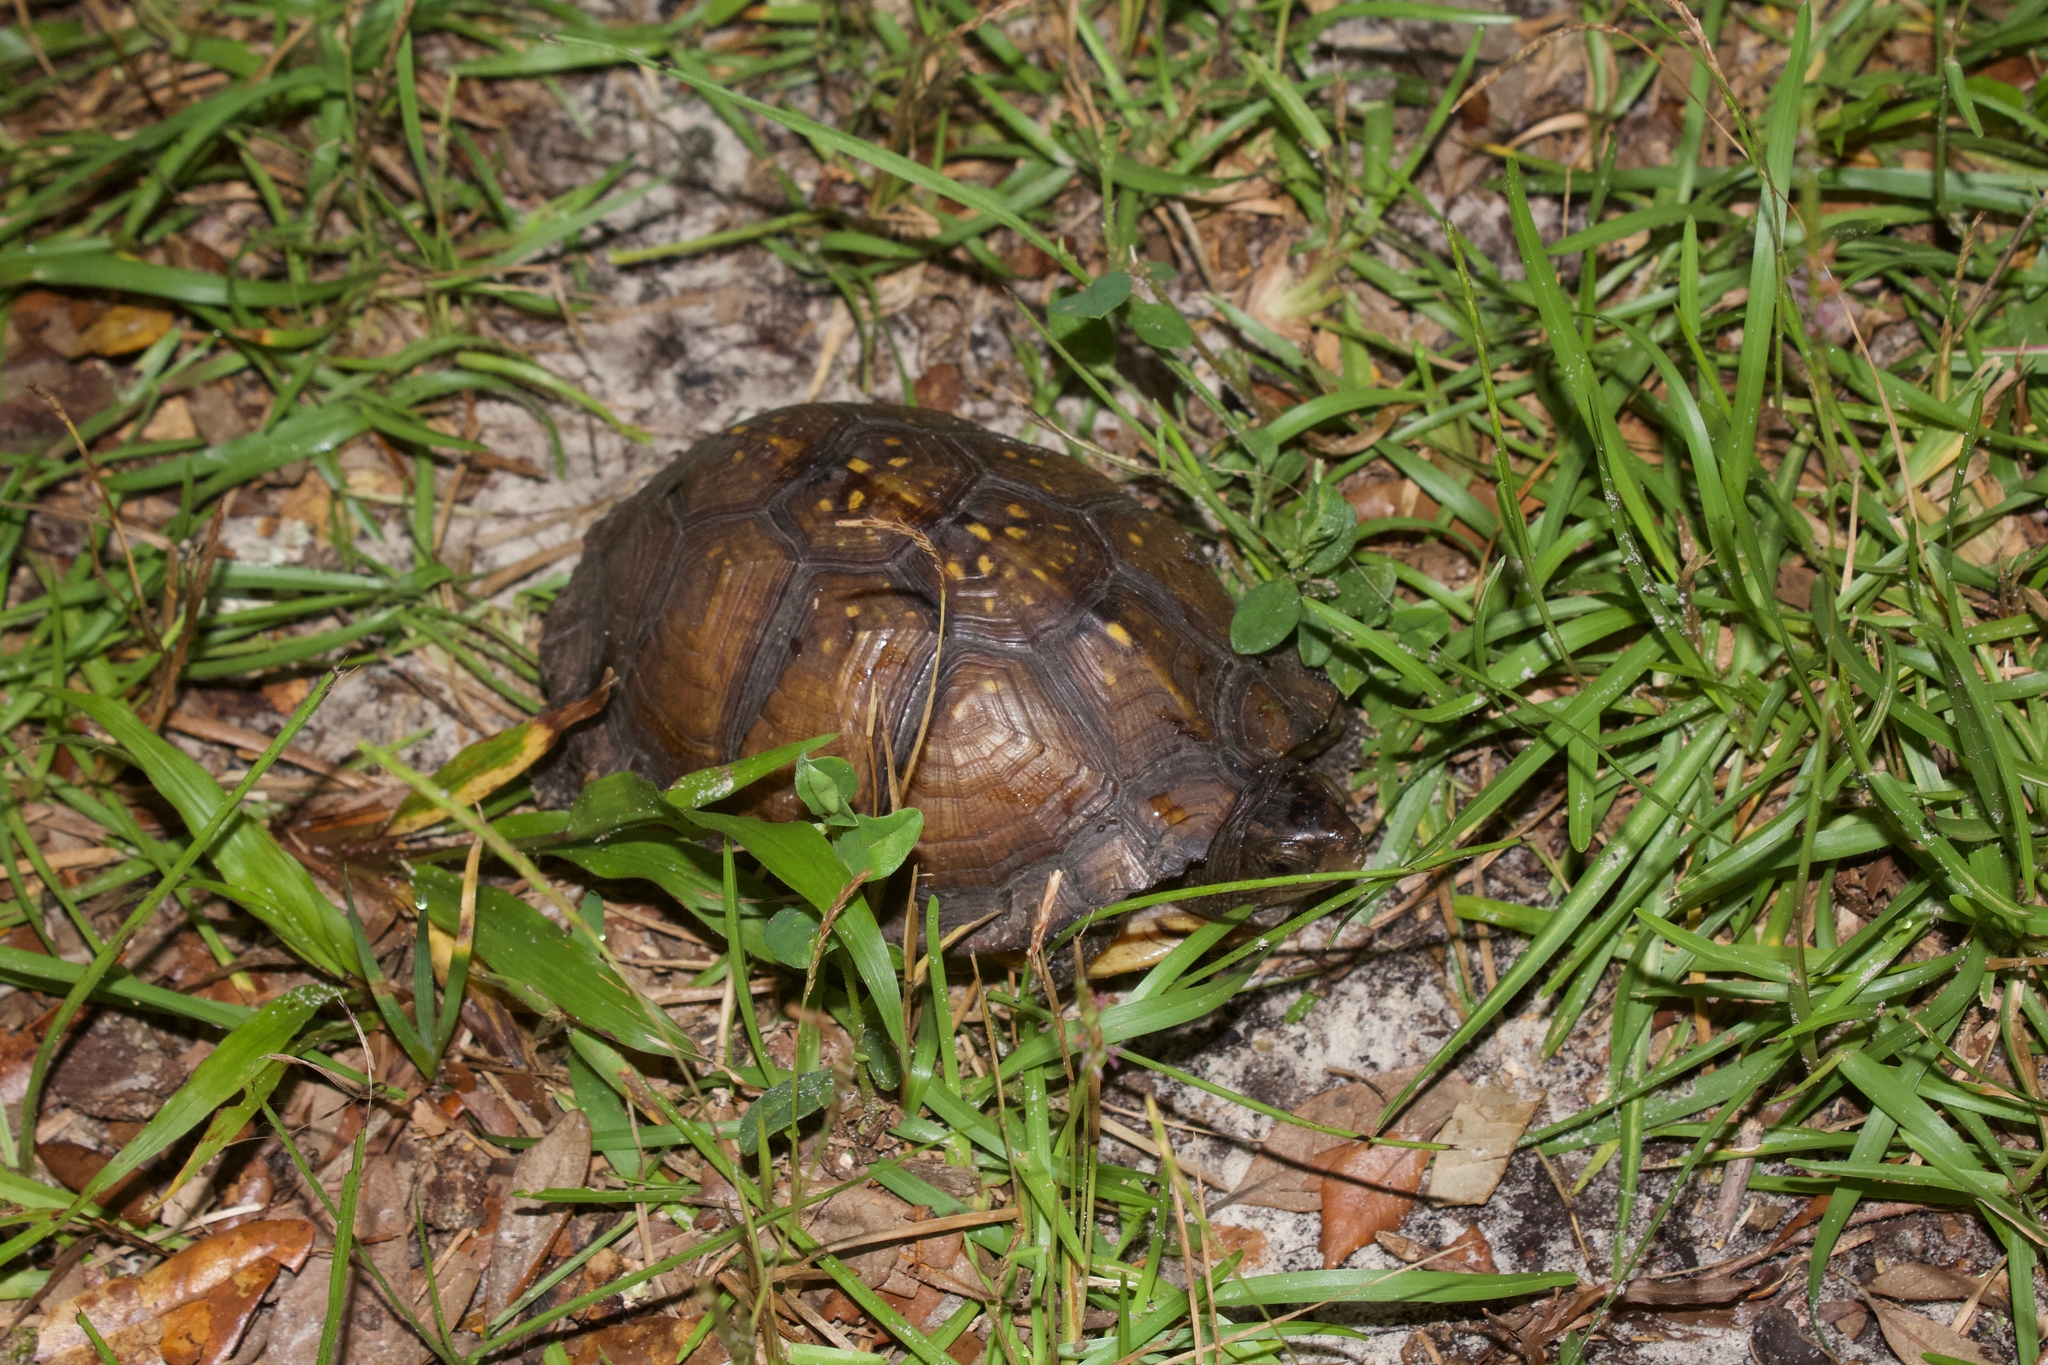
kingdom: Animalia
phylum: Chordata
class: Testudines
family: Emydidae
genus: Terrapene
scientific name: Terrapene carolina
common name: Common box turtle
